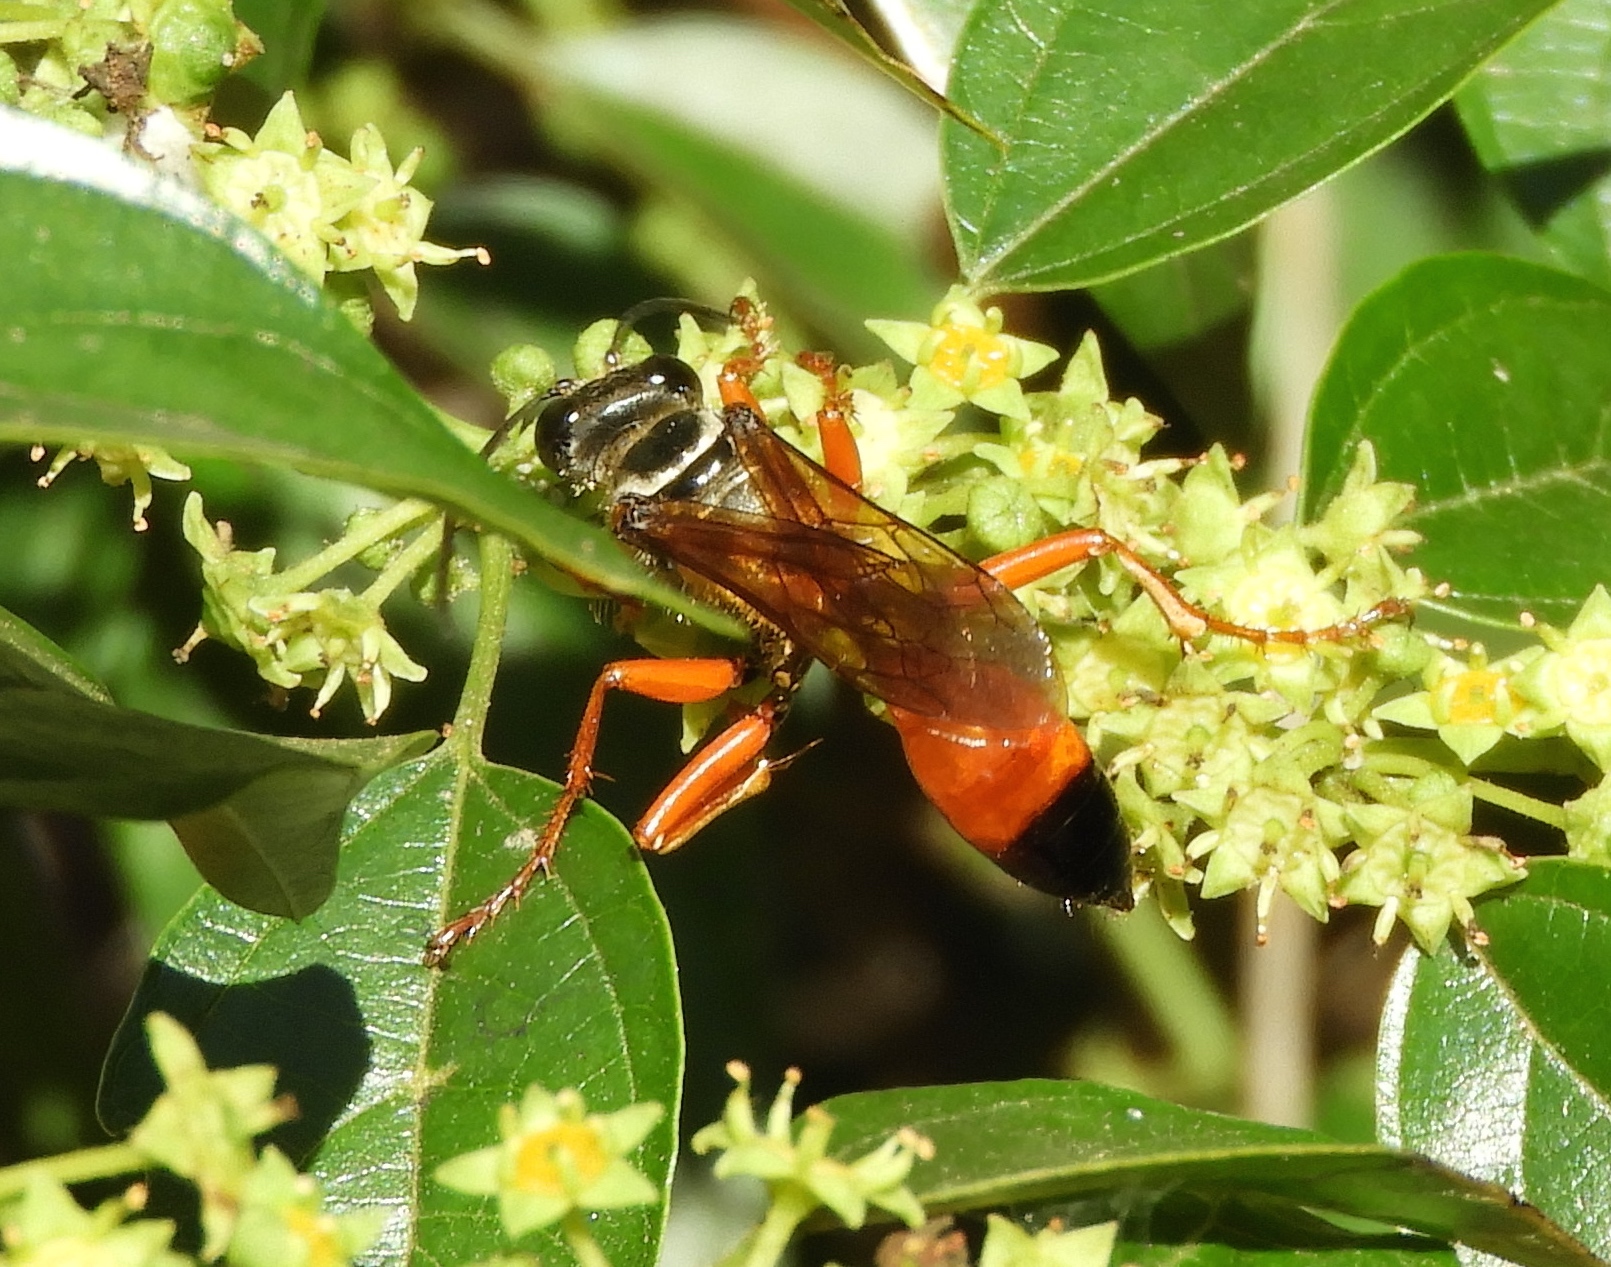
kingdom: Animalia
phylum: Arthropoda
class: Insecta
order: Hymenoptera
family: Sphecidae
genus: Sphex
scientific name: Sphex ichneumoneus
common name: Great golden digger wasp
